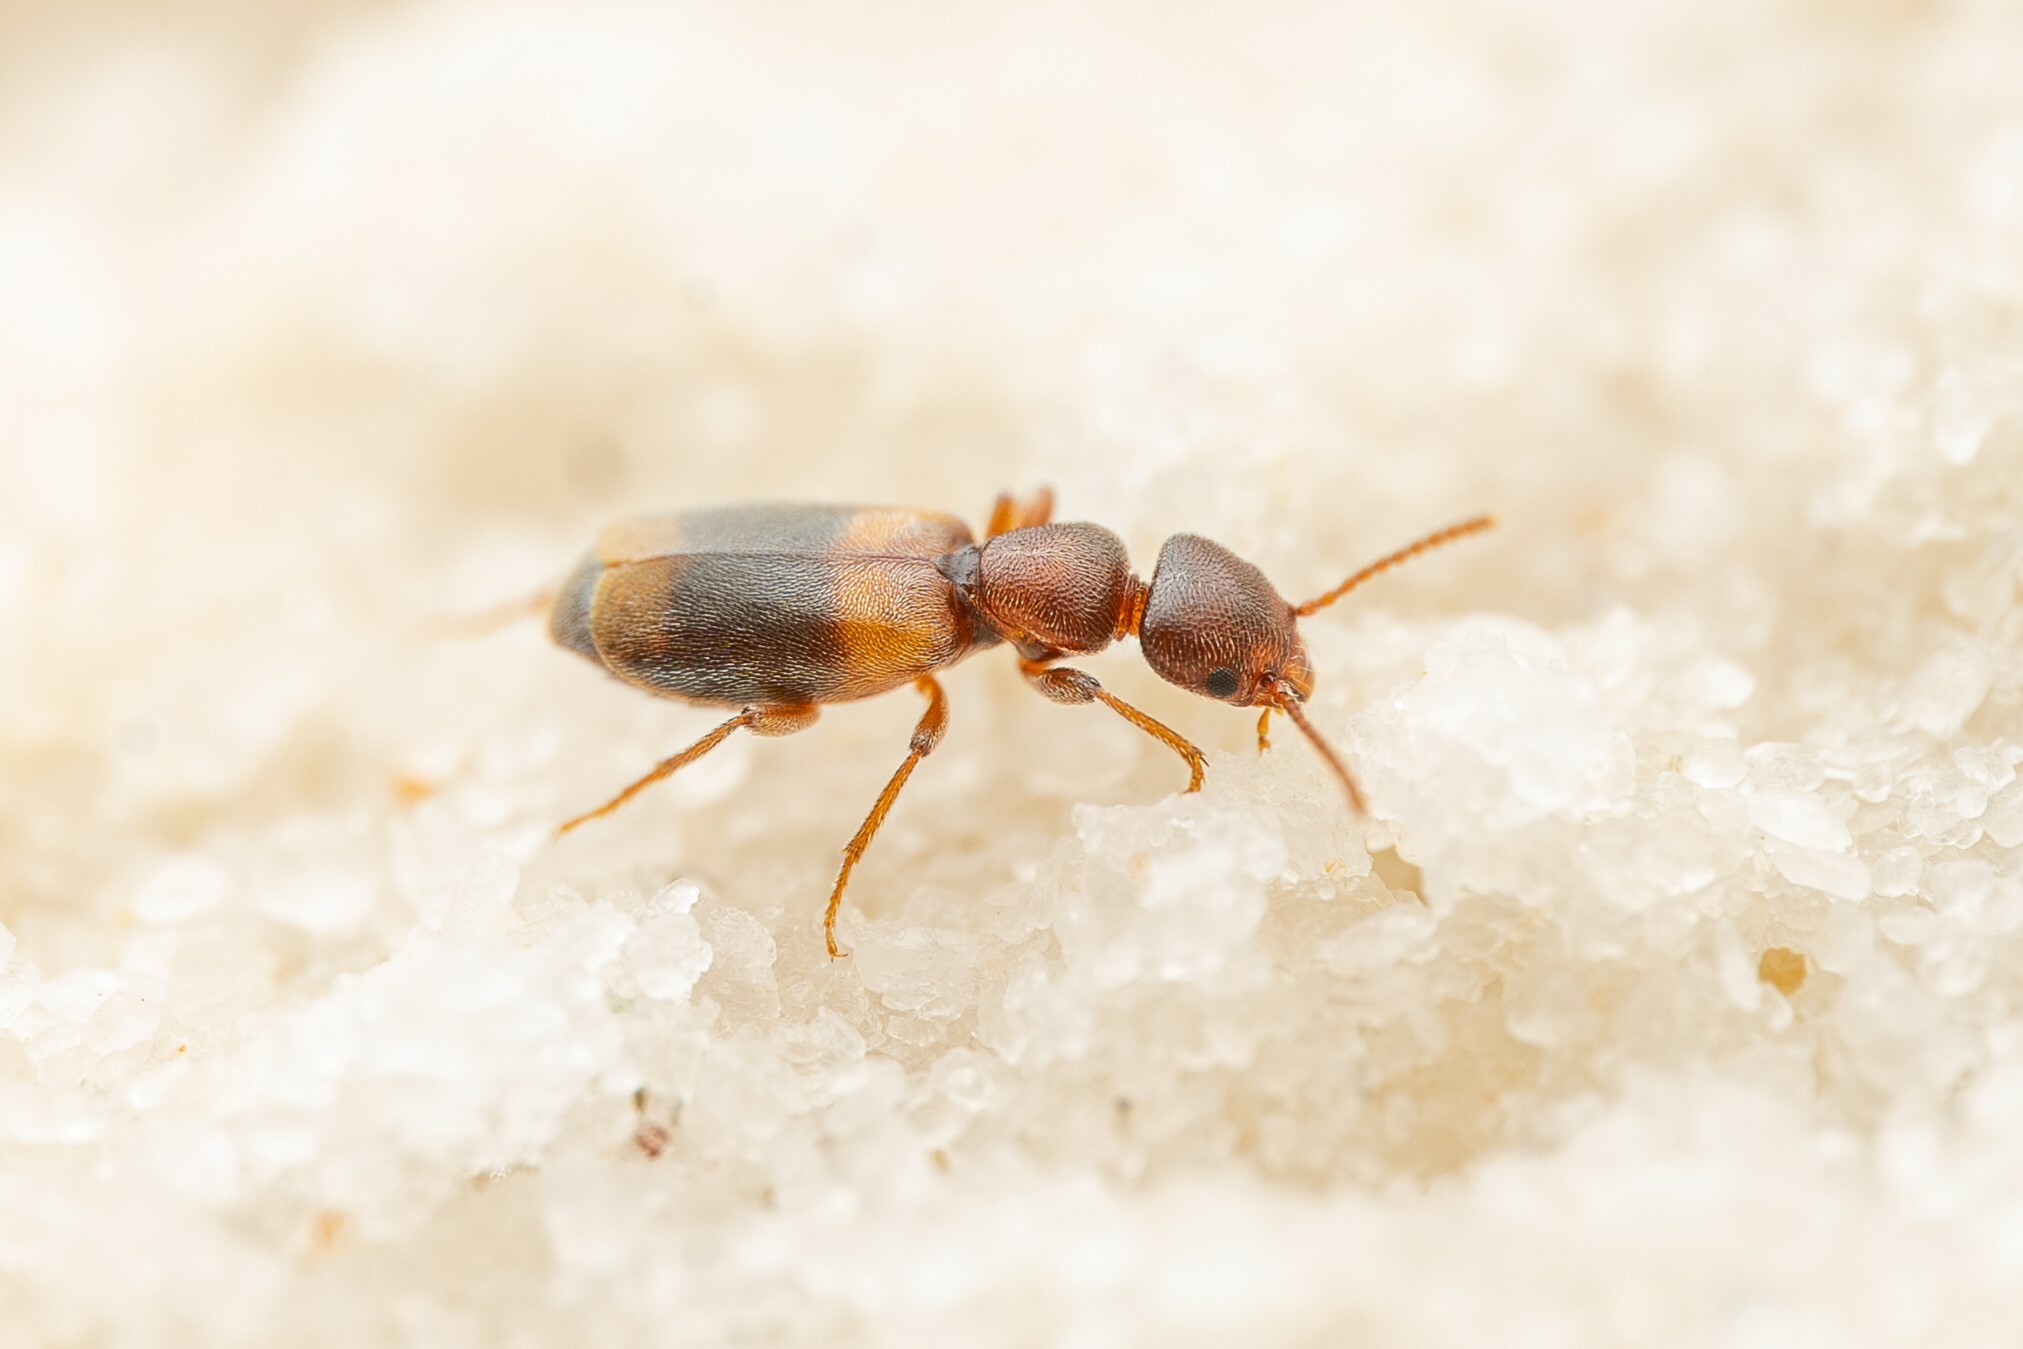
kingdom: Animalia
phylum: Arthropoda
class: Insecta
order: Coleoptera
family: Anthicidae
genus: Tanarthrus
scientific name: Tanarthrus brevipennis
